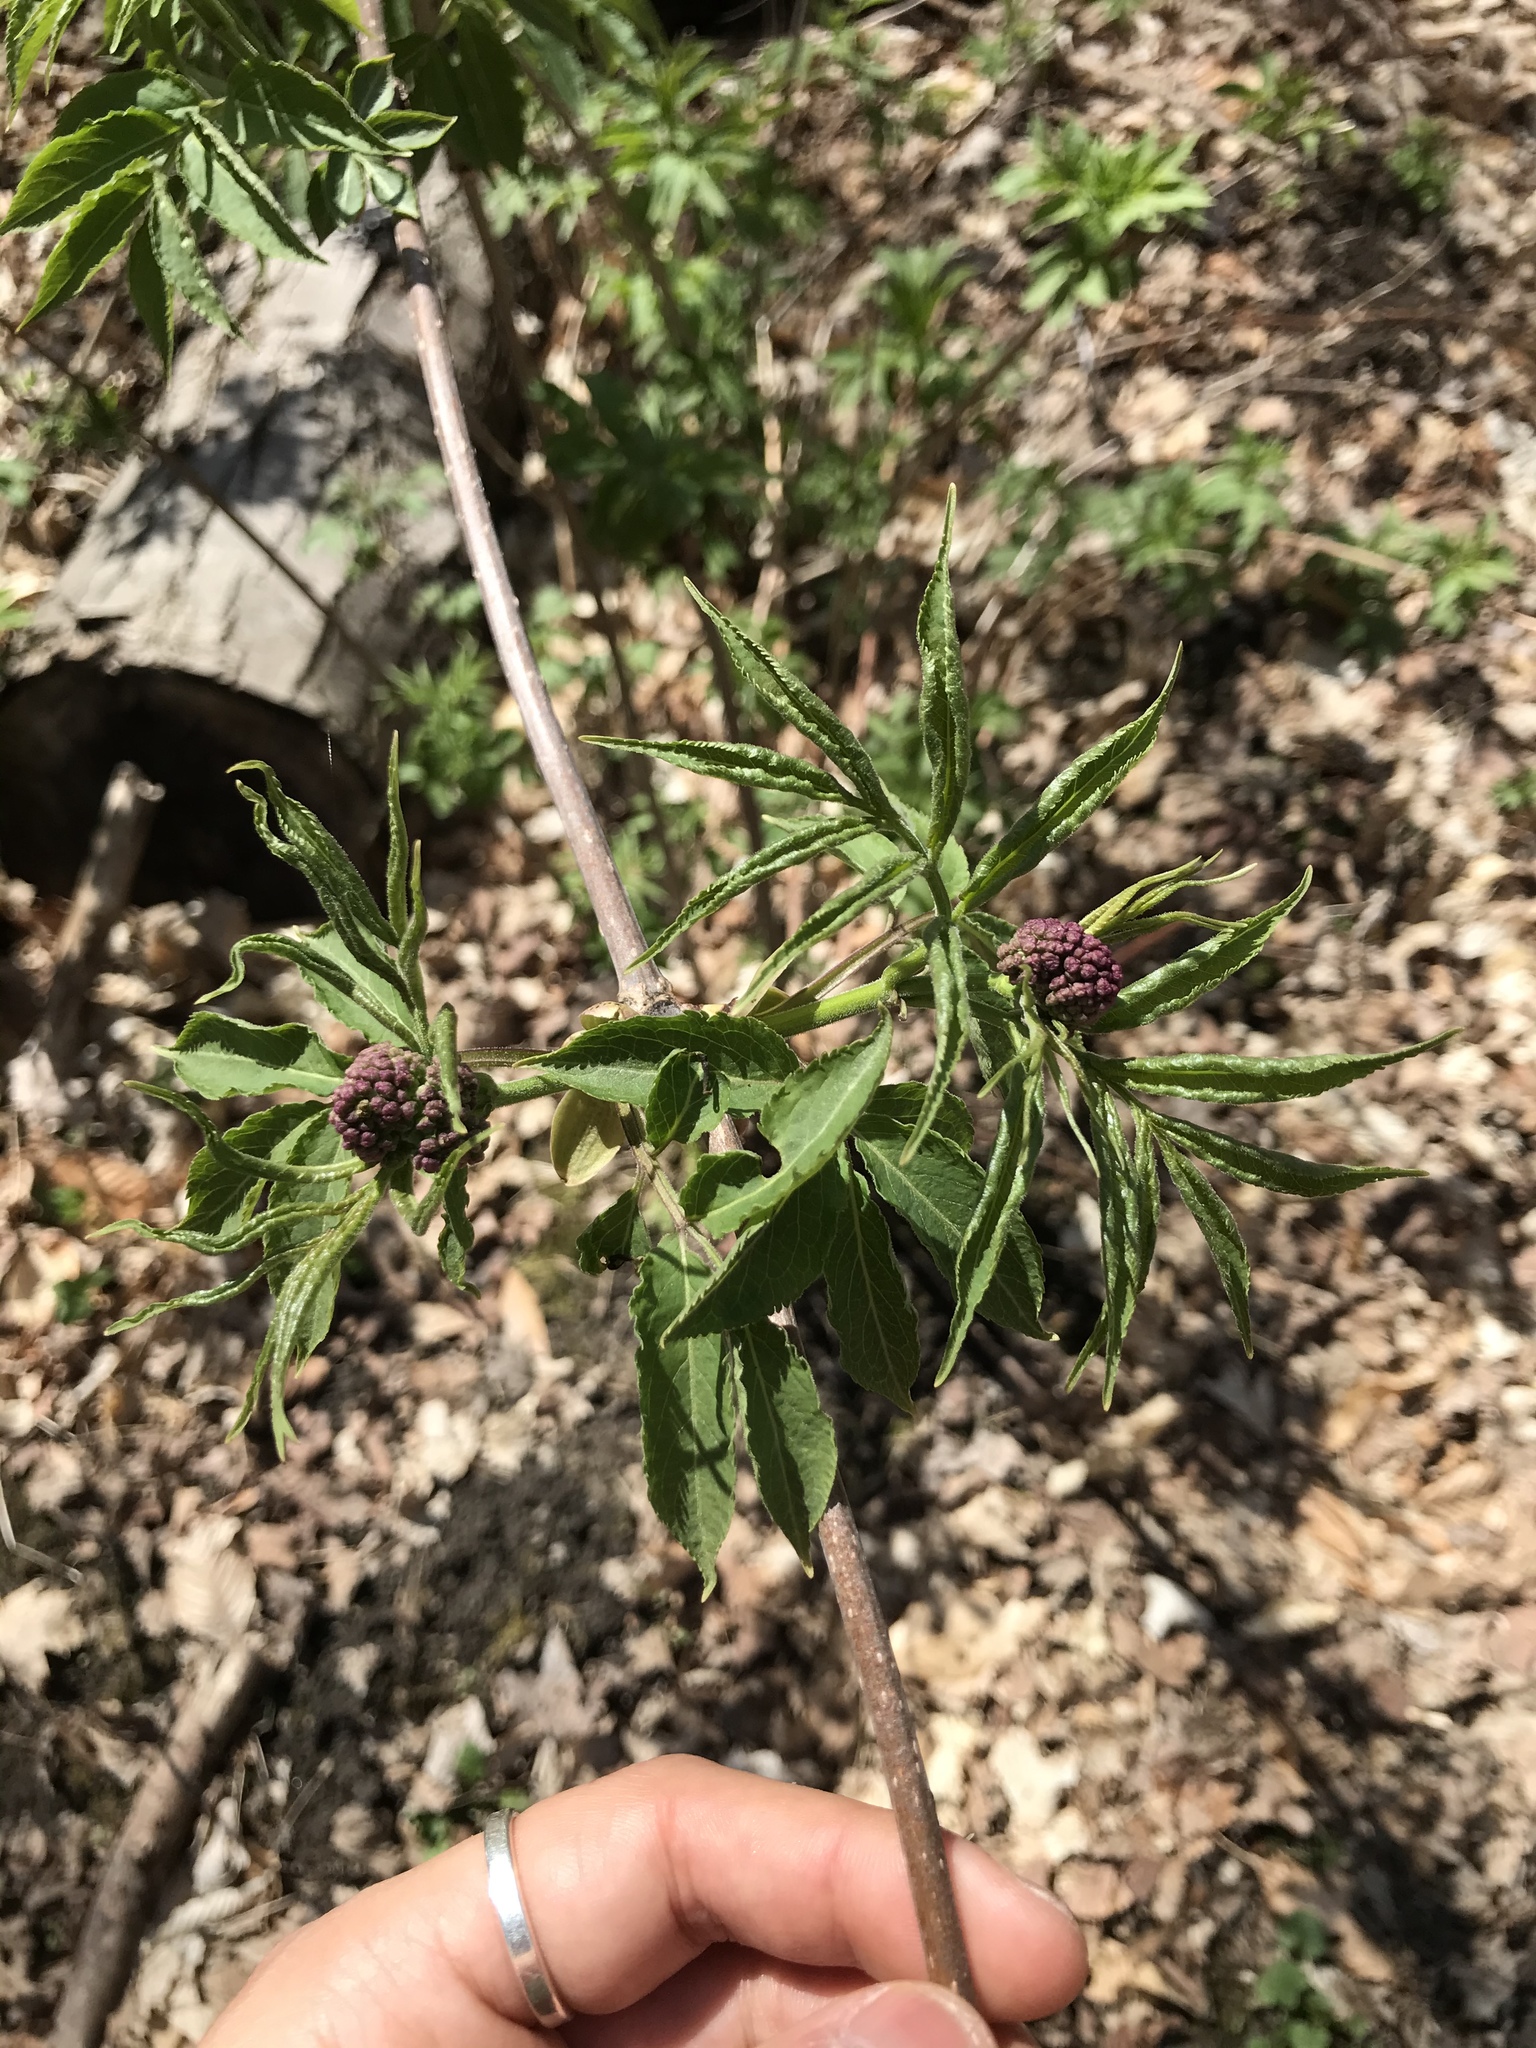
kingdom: Plantae
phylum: Tracheophyta
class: Magnoliopsida
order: Dipsacales
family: Viburnaceae
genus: Sambucus
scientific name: Sambucus racemosa
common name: Red-berried elder
